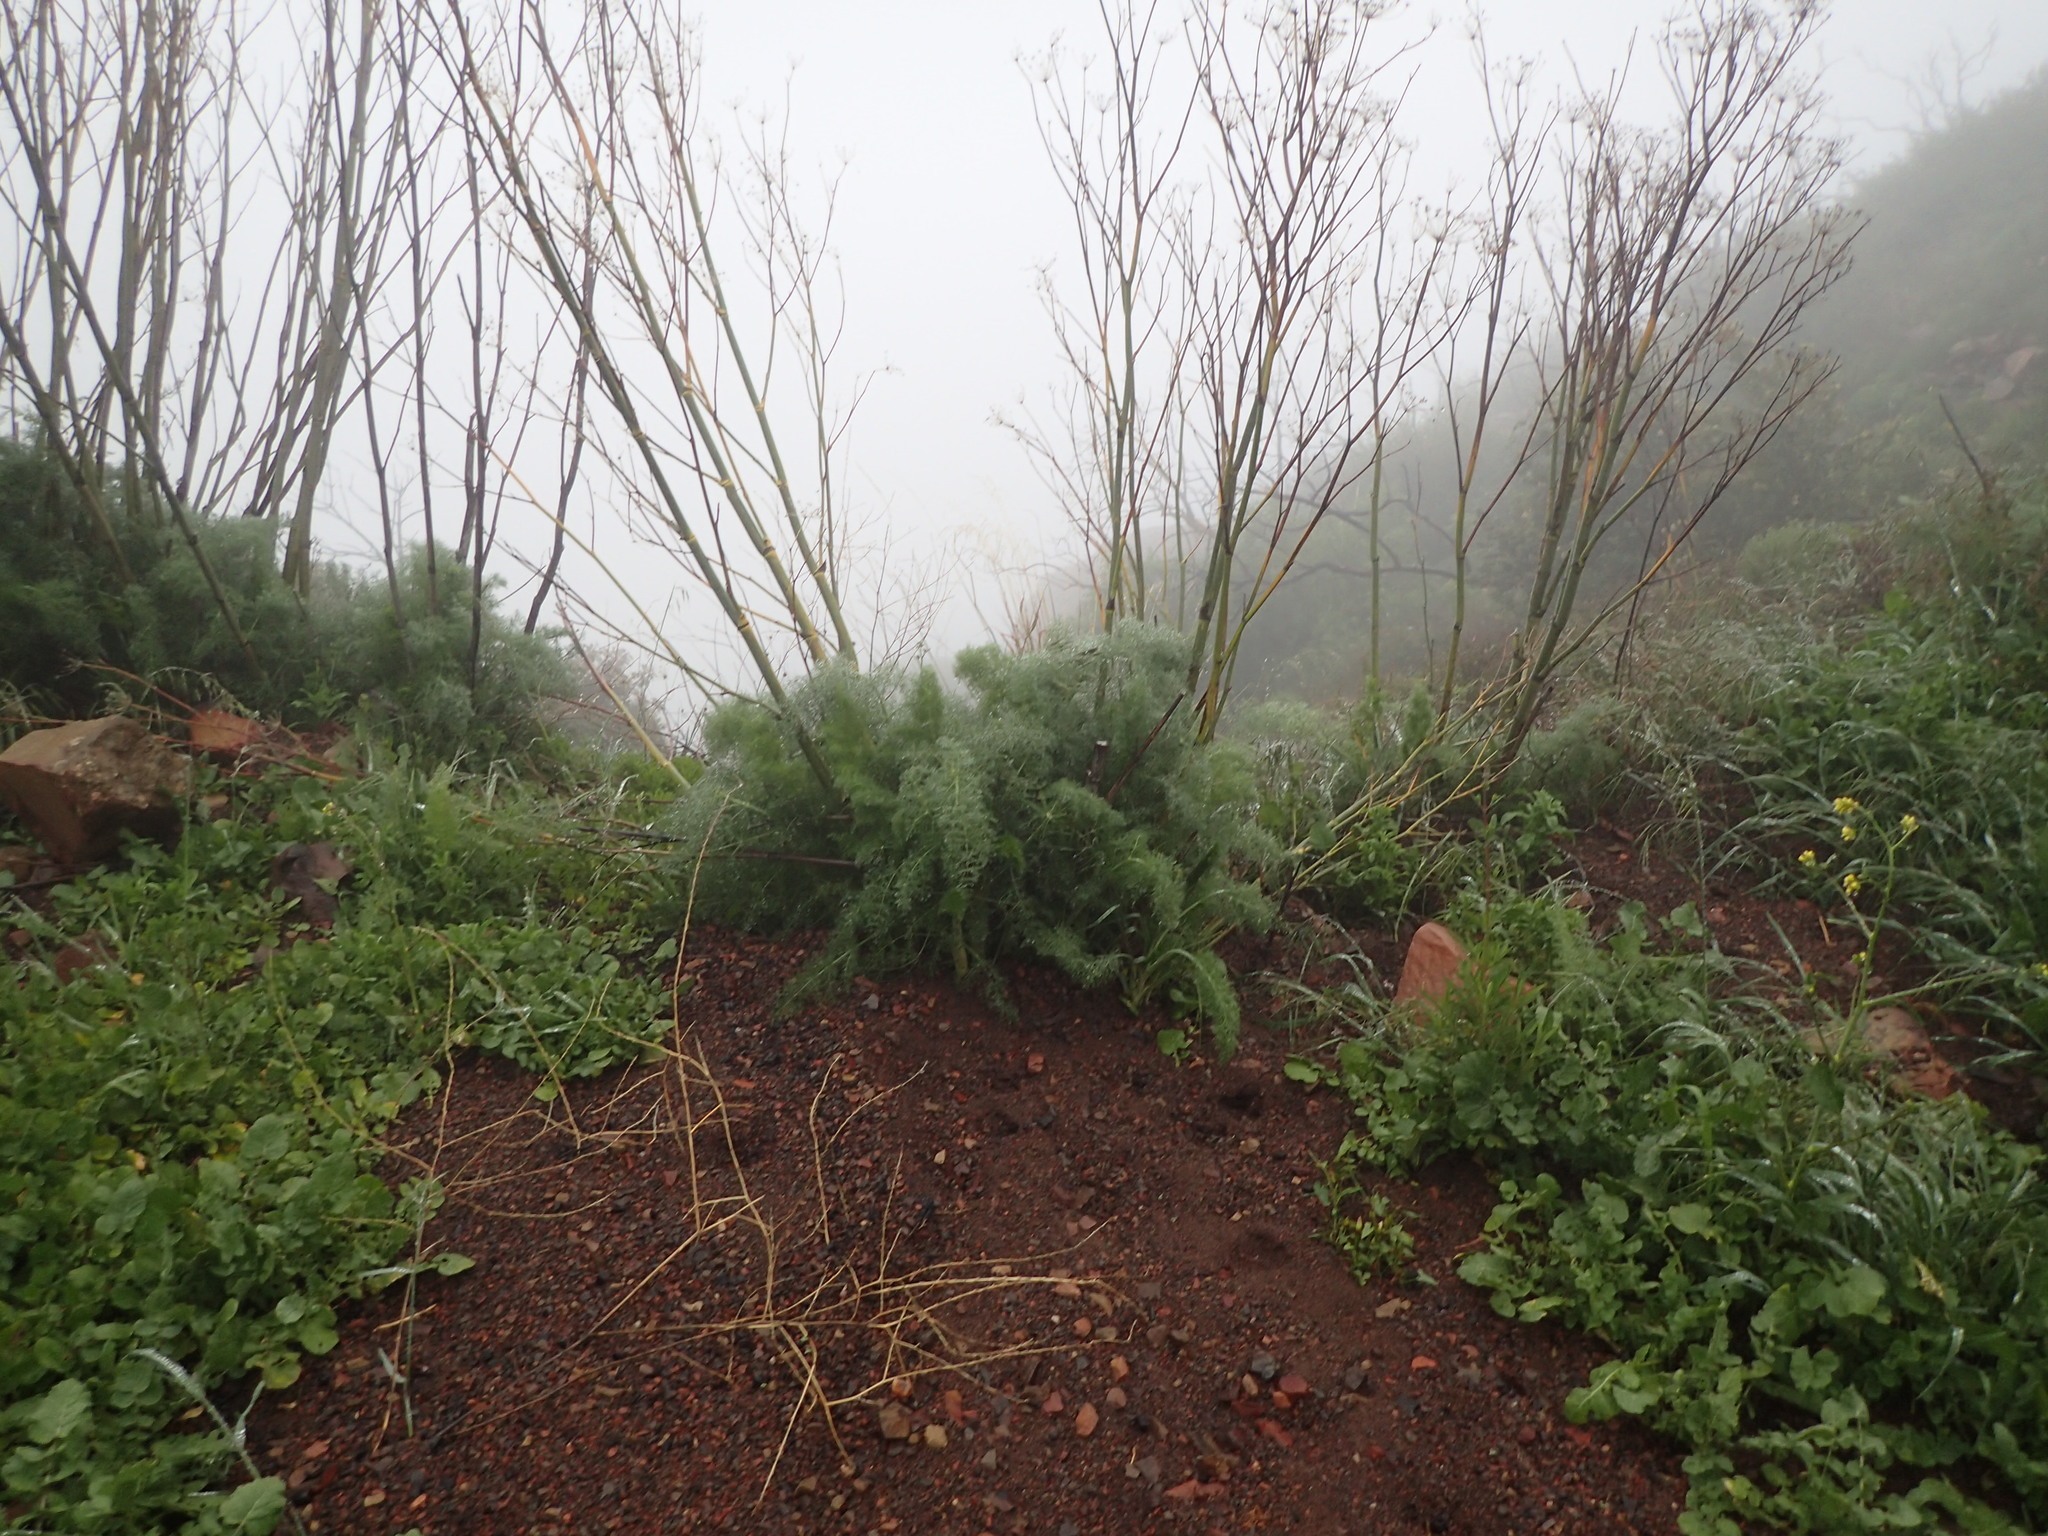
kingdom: Plantae
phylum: Tracheophyta
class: Magnoliopsida
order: Apiales
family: Apiaceae
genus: Foeniculum
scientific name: Foeniculum vulgare
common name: Fennel
